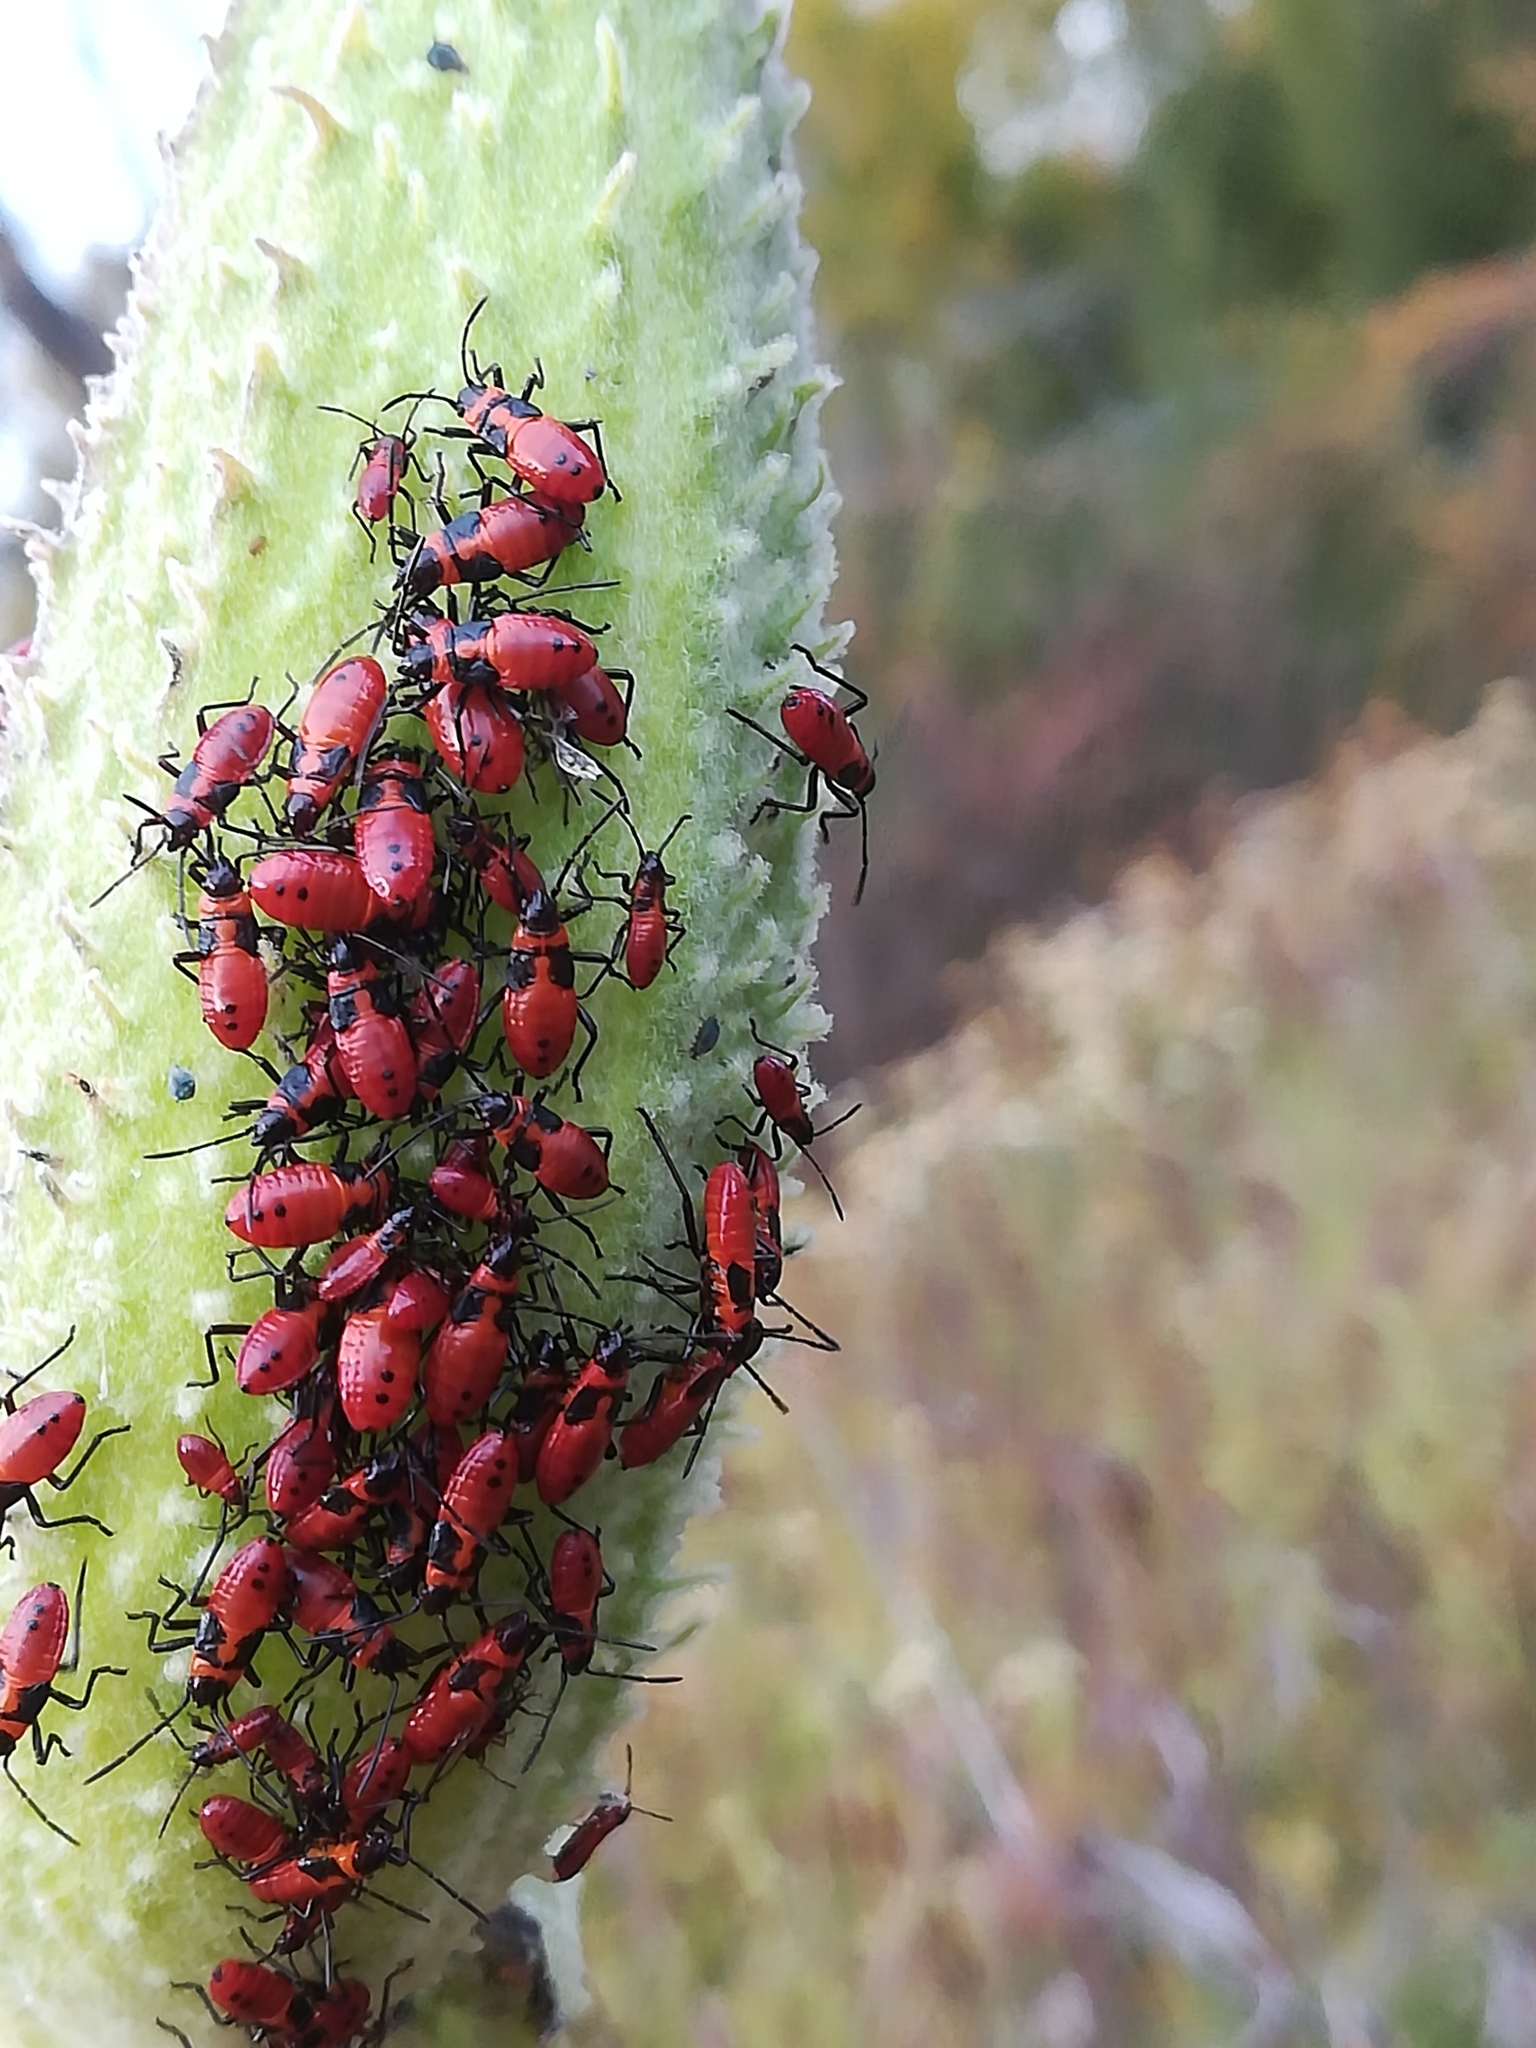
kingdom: Animalia
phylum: Arthropoda
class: Insecta
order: Hemiptera
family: Lygaeidae
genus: Oncopeltus
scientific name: Oncopeltus fasciatus
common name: Large milkweed bug
